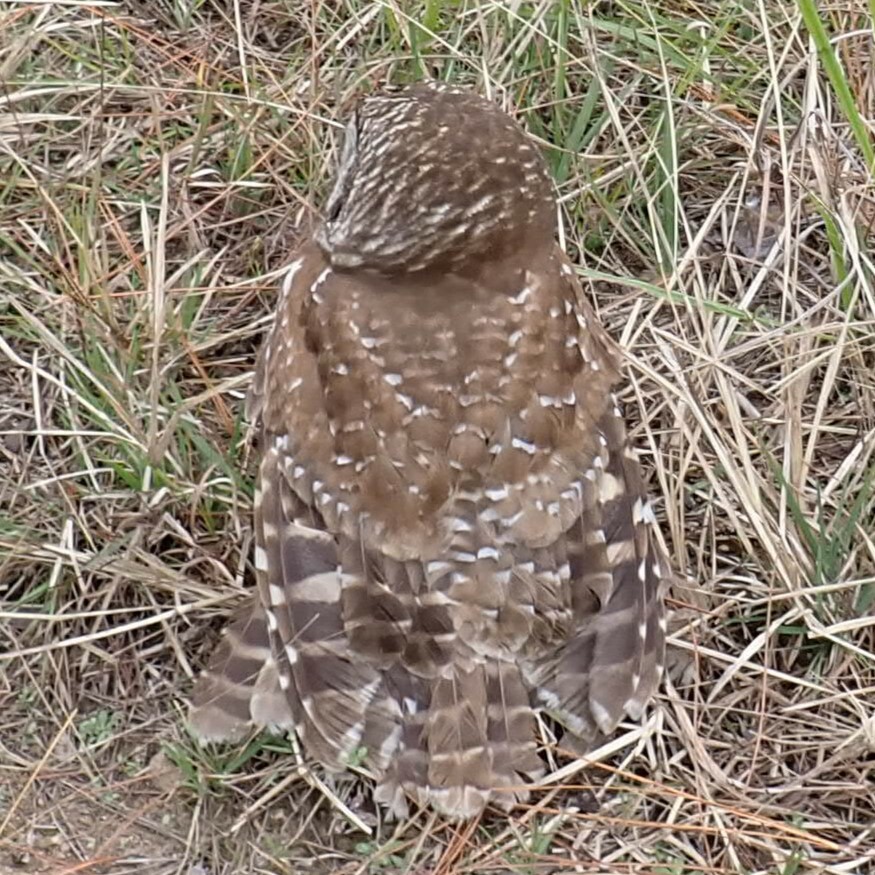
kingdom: Animalia
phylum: Chordata
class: Aves
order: Strigiformes
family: Strigidae
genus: Strix
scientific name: Strix varia
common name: Barred owl
